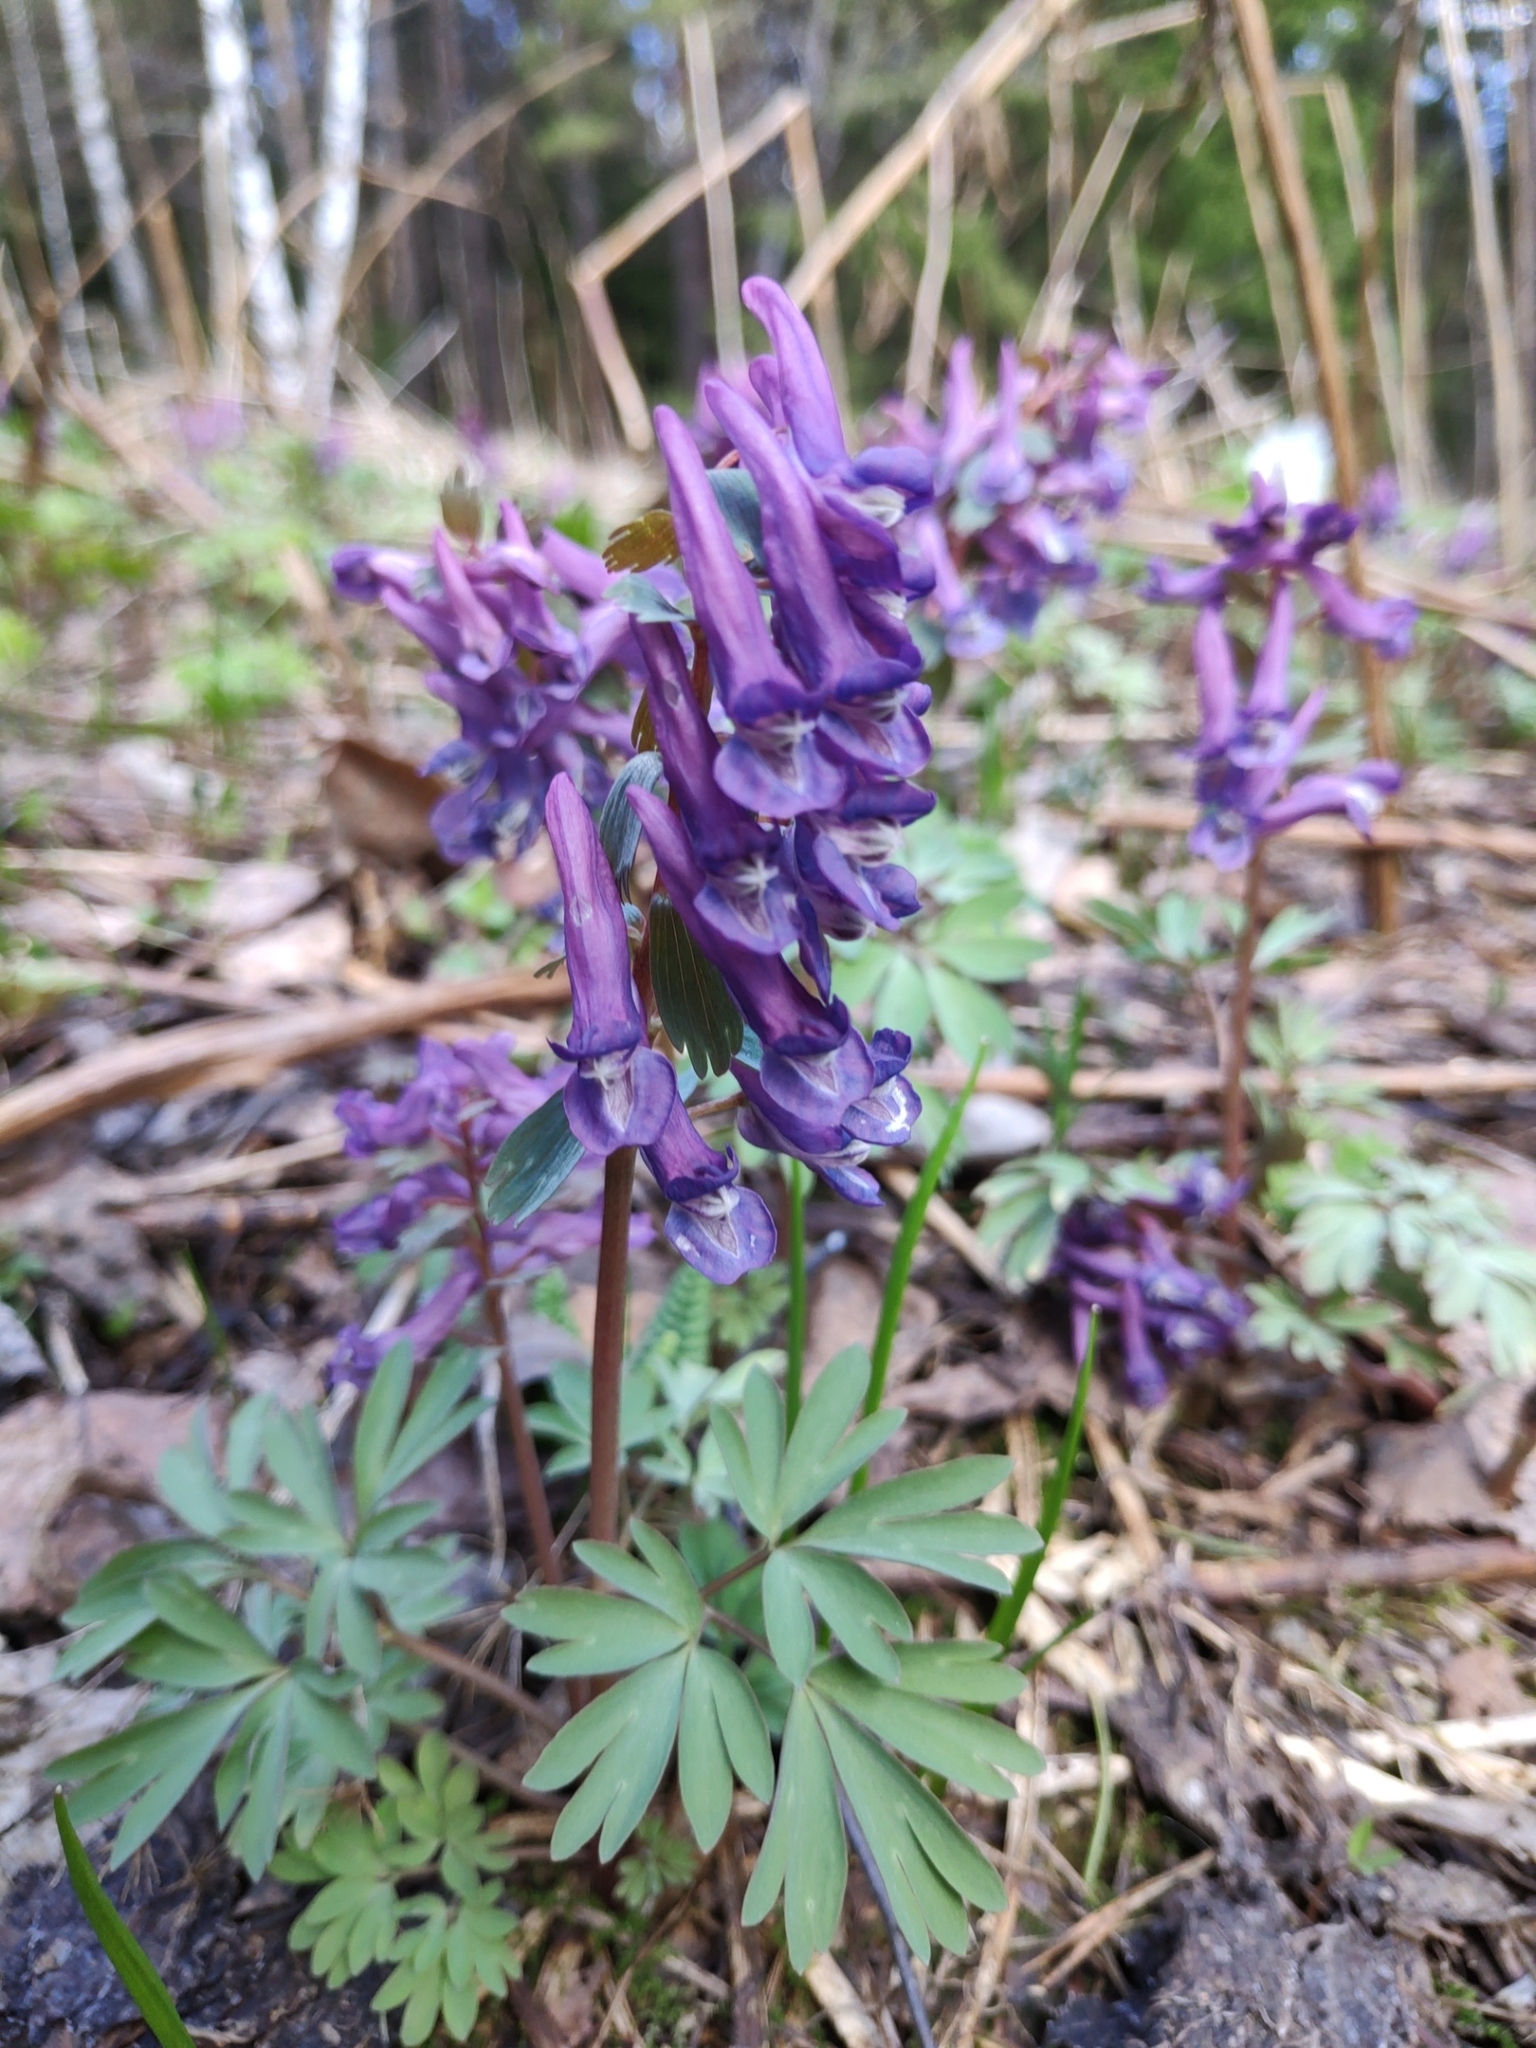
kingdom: Plantae
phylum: Tracheophyta
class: Magnoliopsida
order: Ranunculales
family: Papaveraceae
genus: Corydalis
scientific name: Corydalis solida
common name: Bird-in-a-bush
